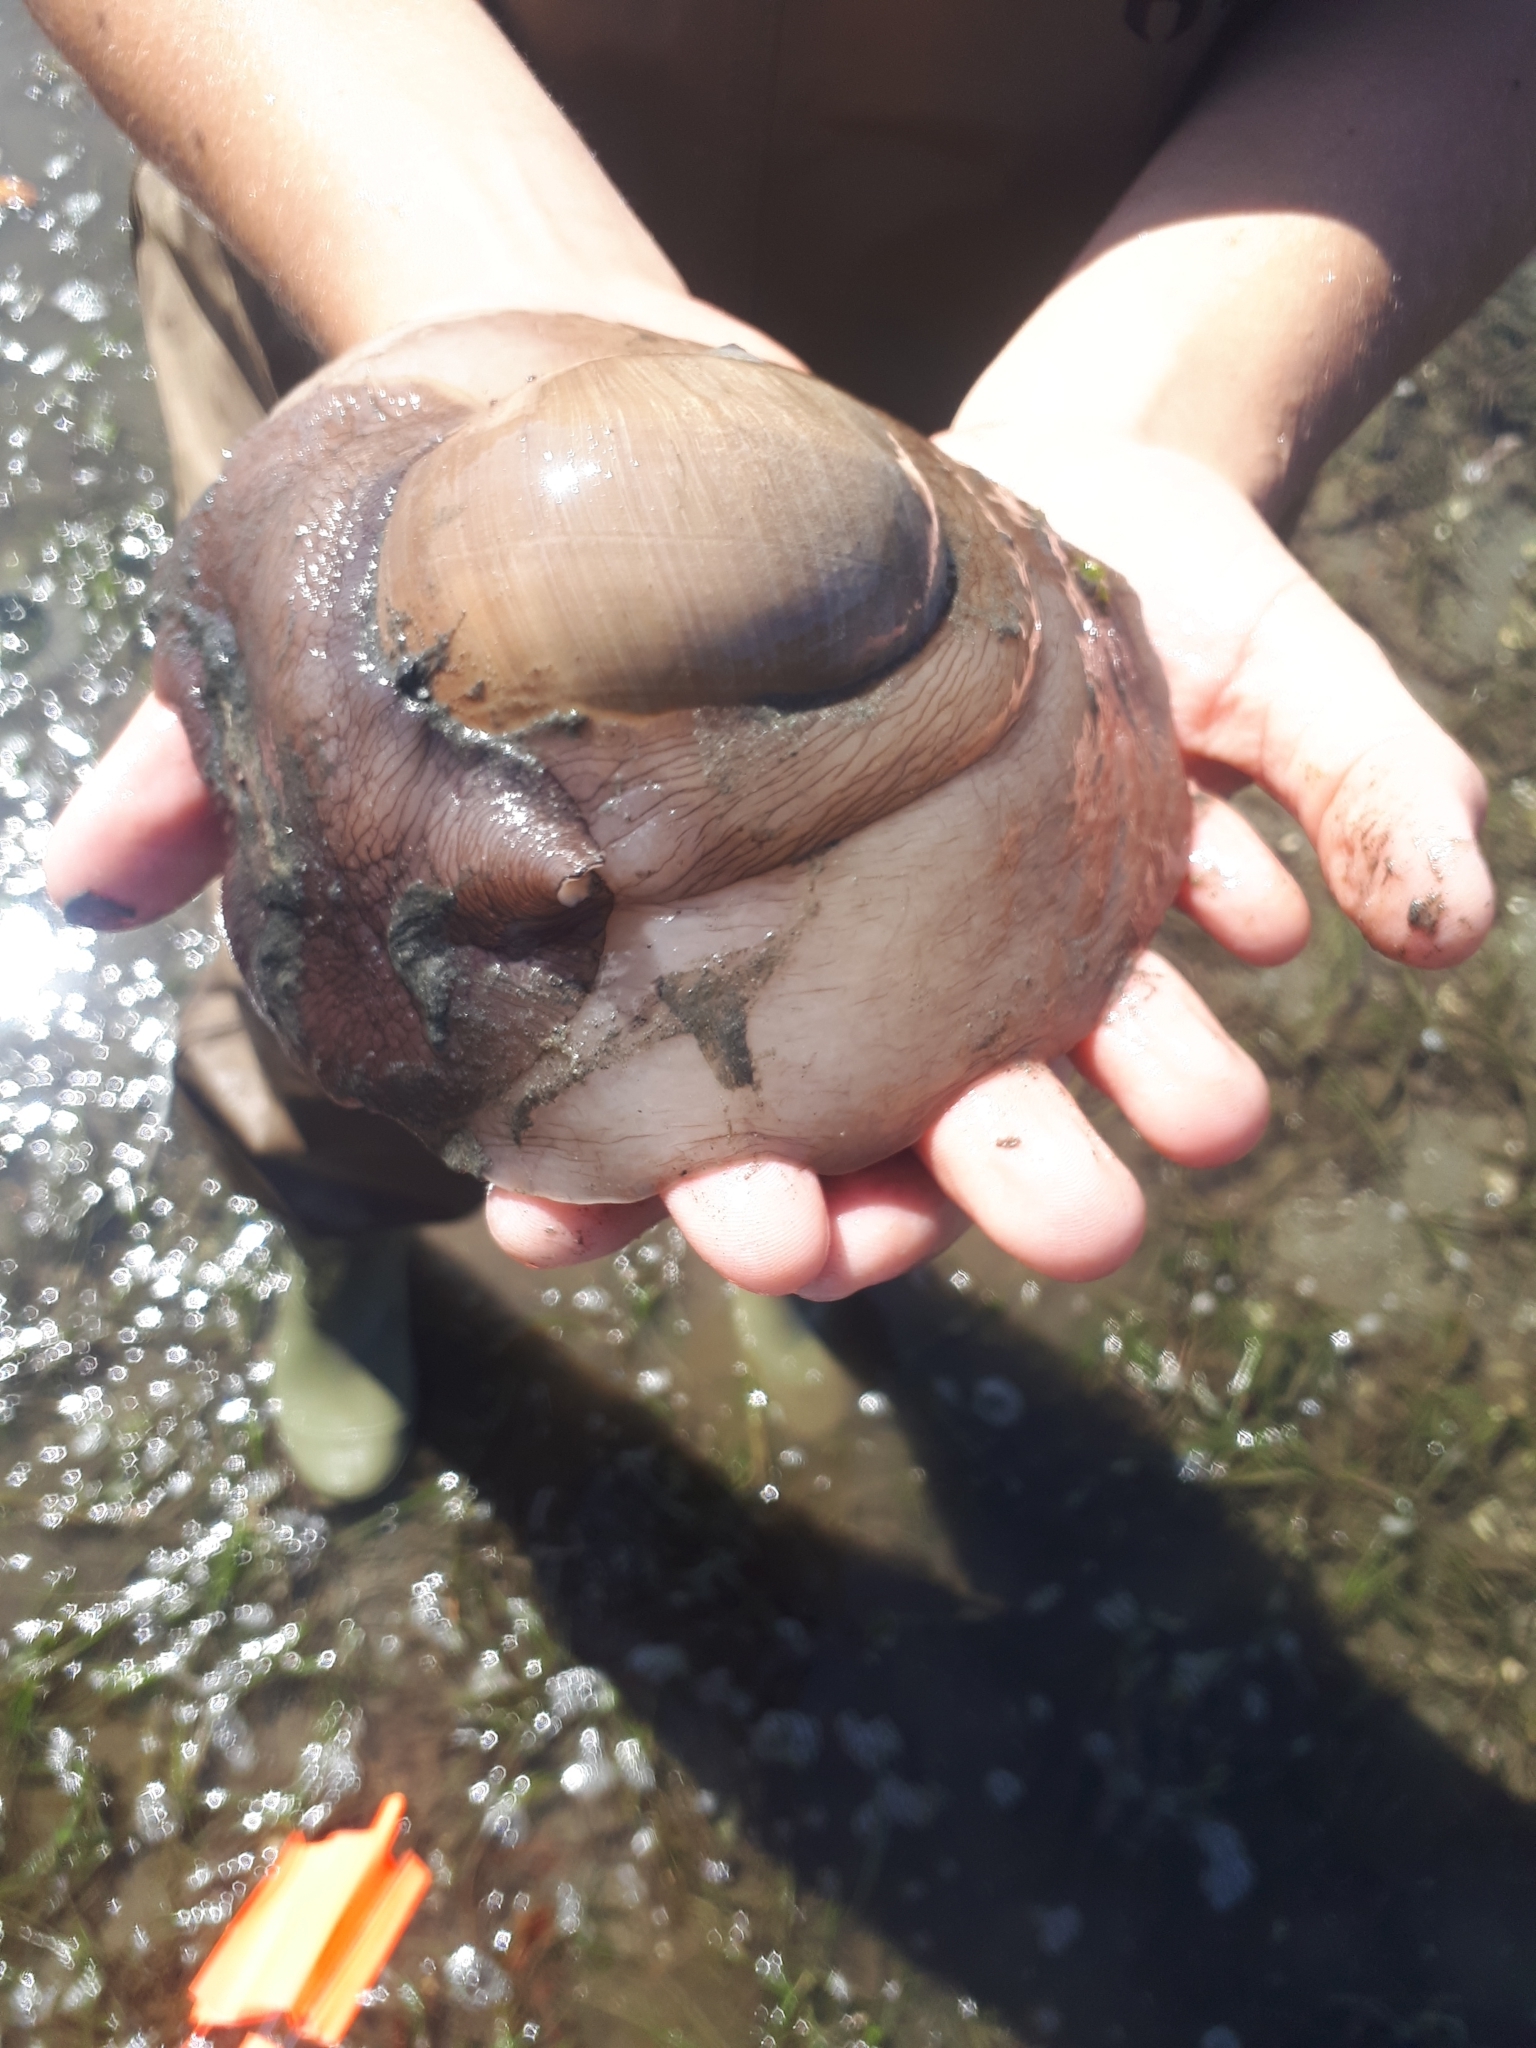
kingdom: Animalia
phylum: Mollusca
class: Gastropoda
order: Littorinimorpha
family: Naticidae
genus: Neverita
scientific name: Neverita lewisii
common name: Lewis' moonsnail
